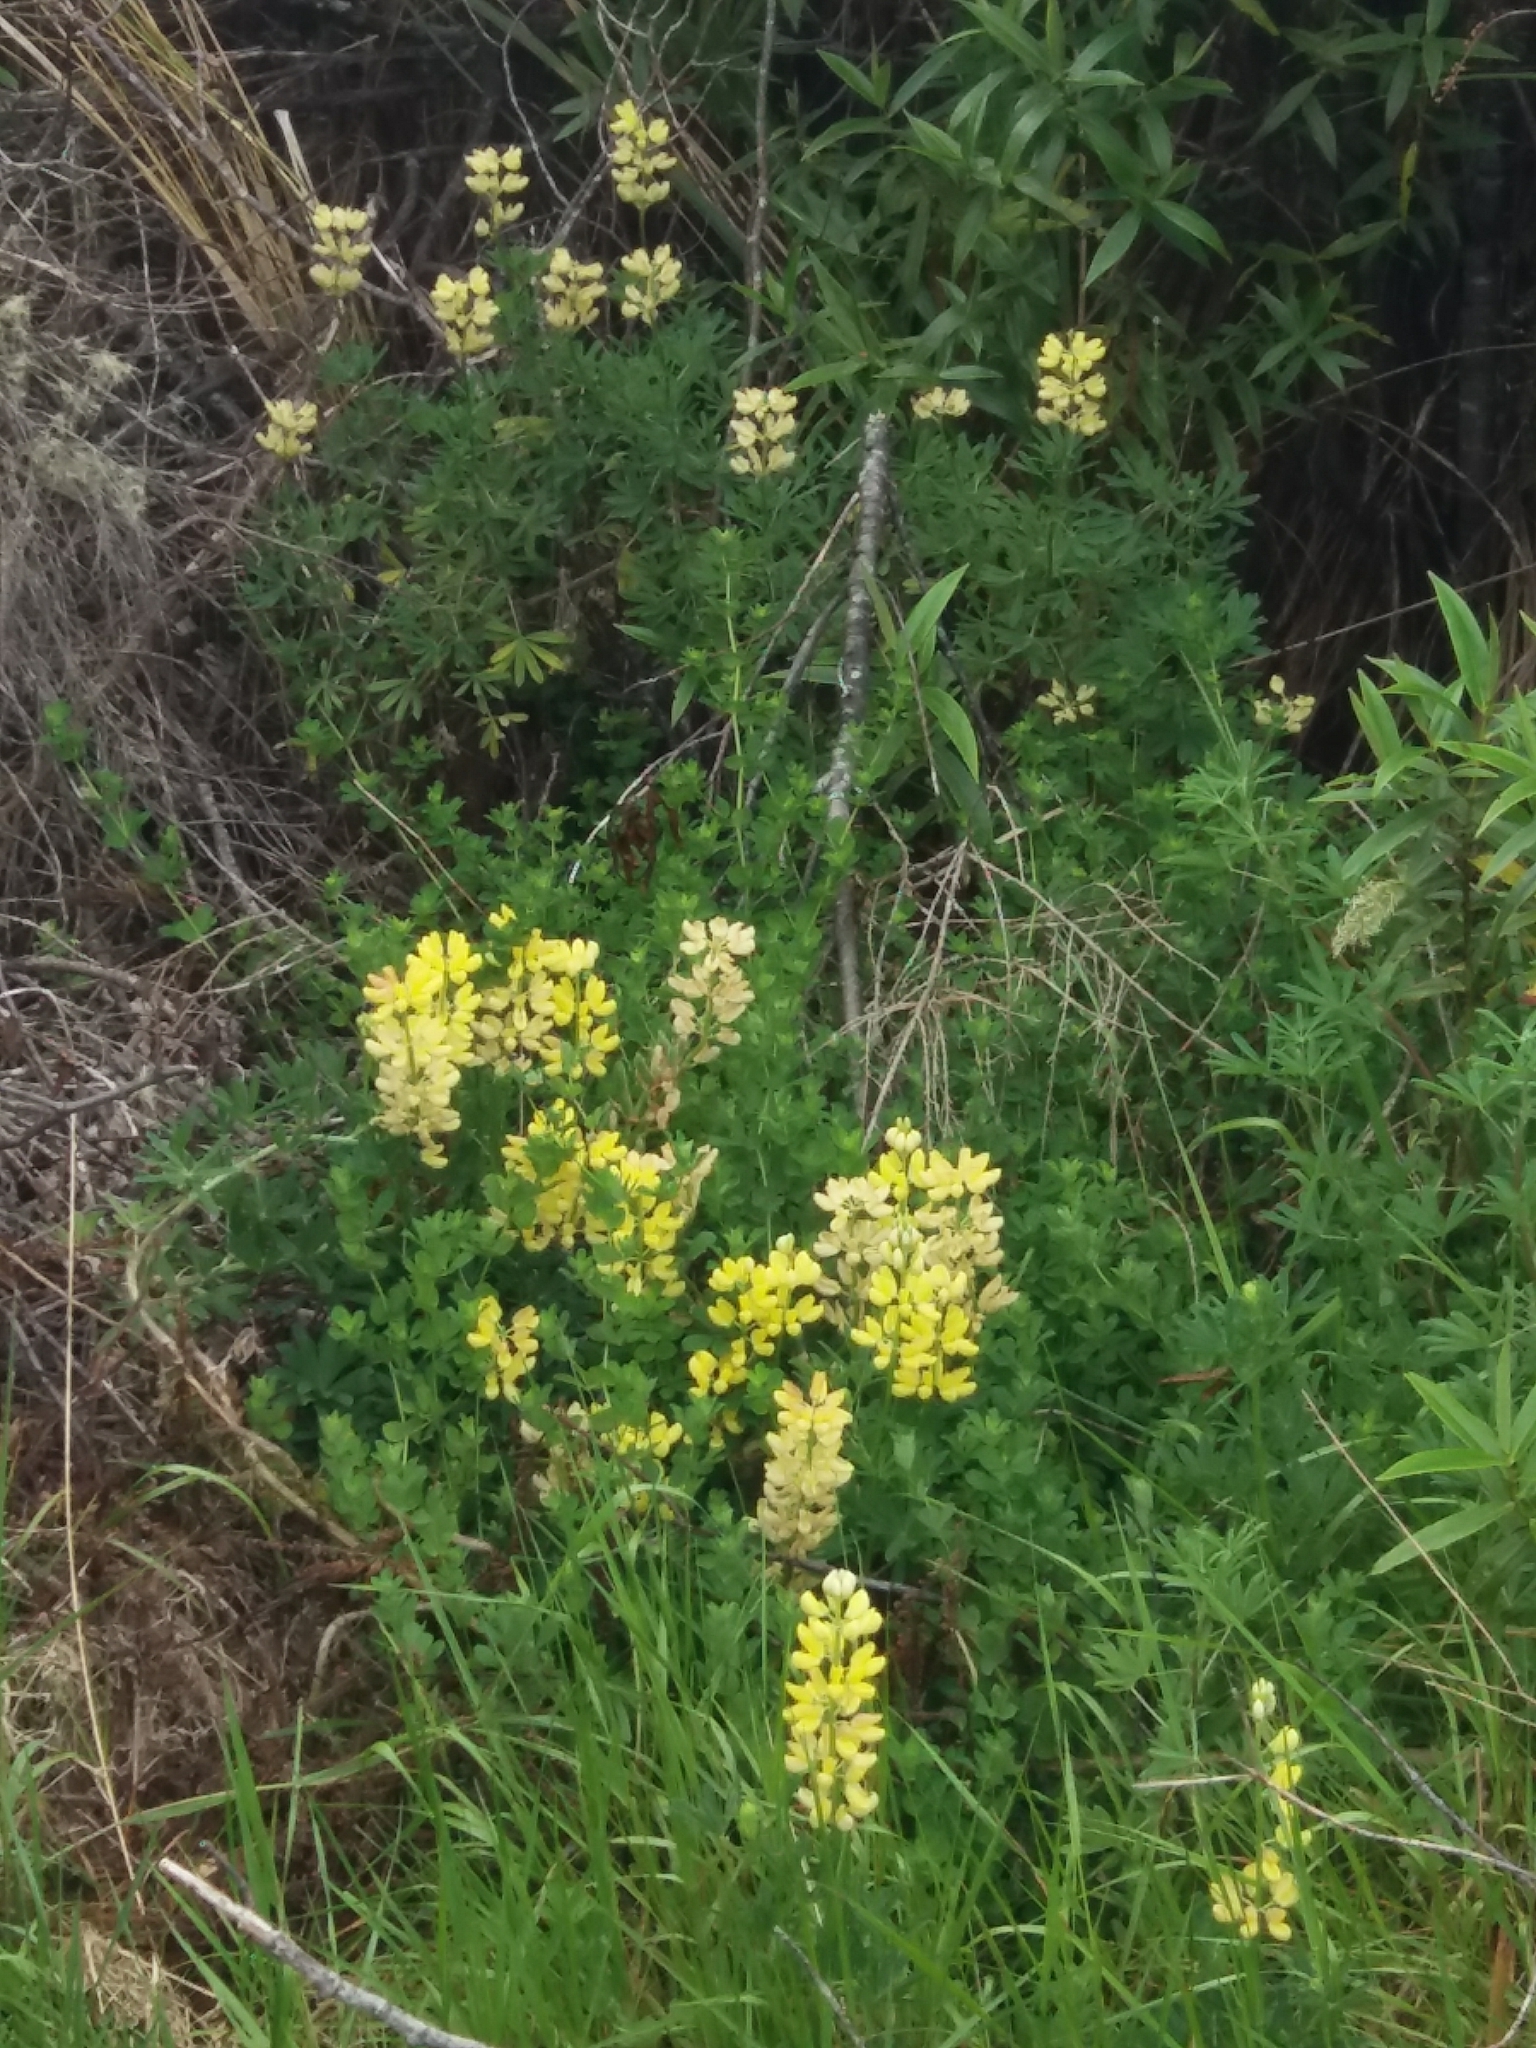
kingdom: Plantae
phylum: Tracheophyta
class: Magnoliopsida
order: Fabales
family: Fabaceae
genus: Lupinus
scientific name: Lupinus arboreus
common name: Yellow bush lupine
